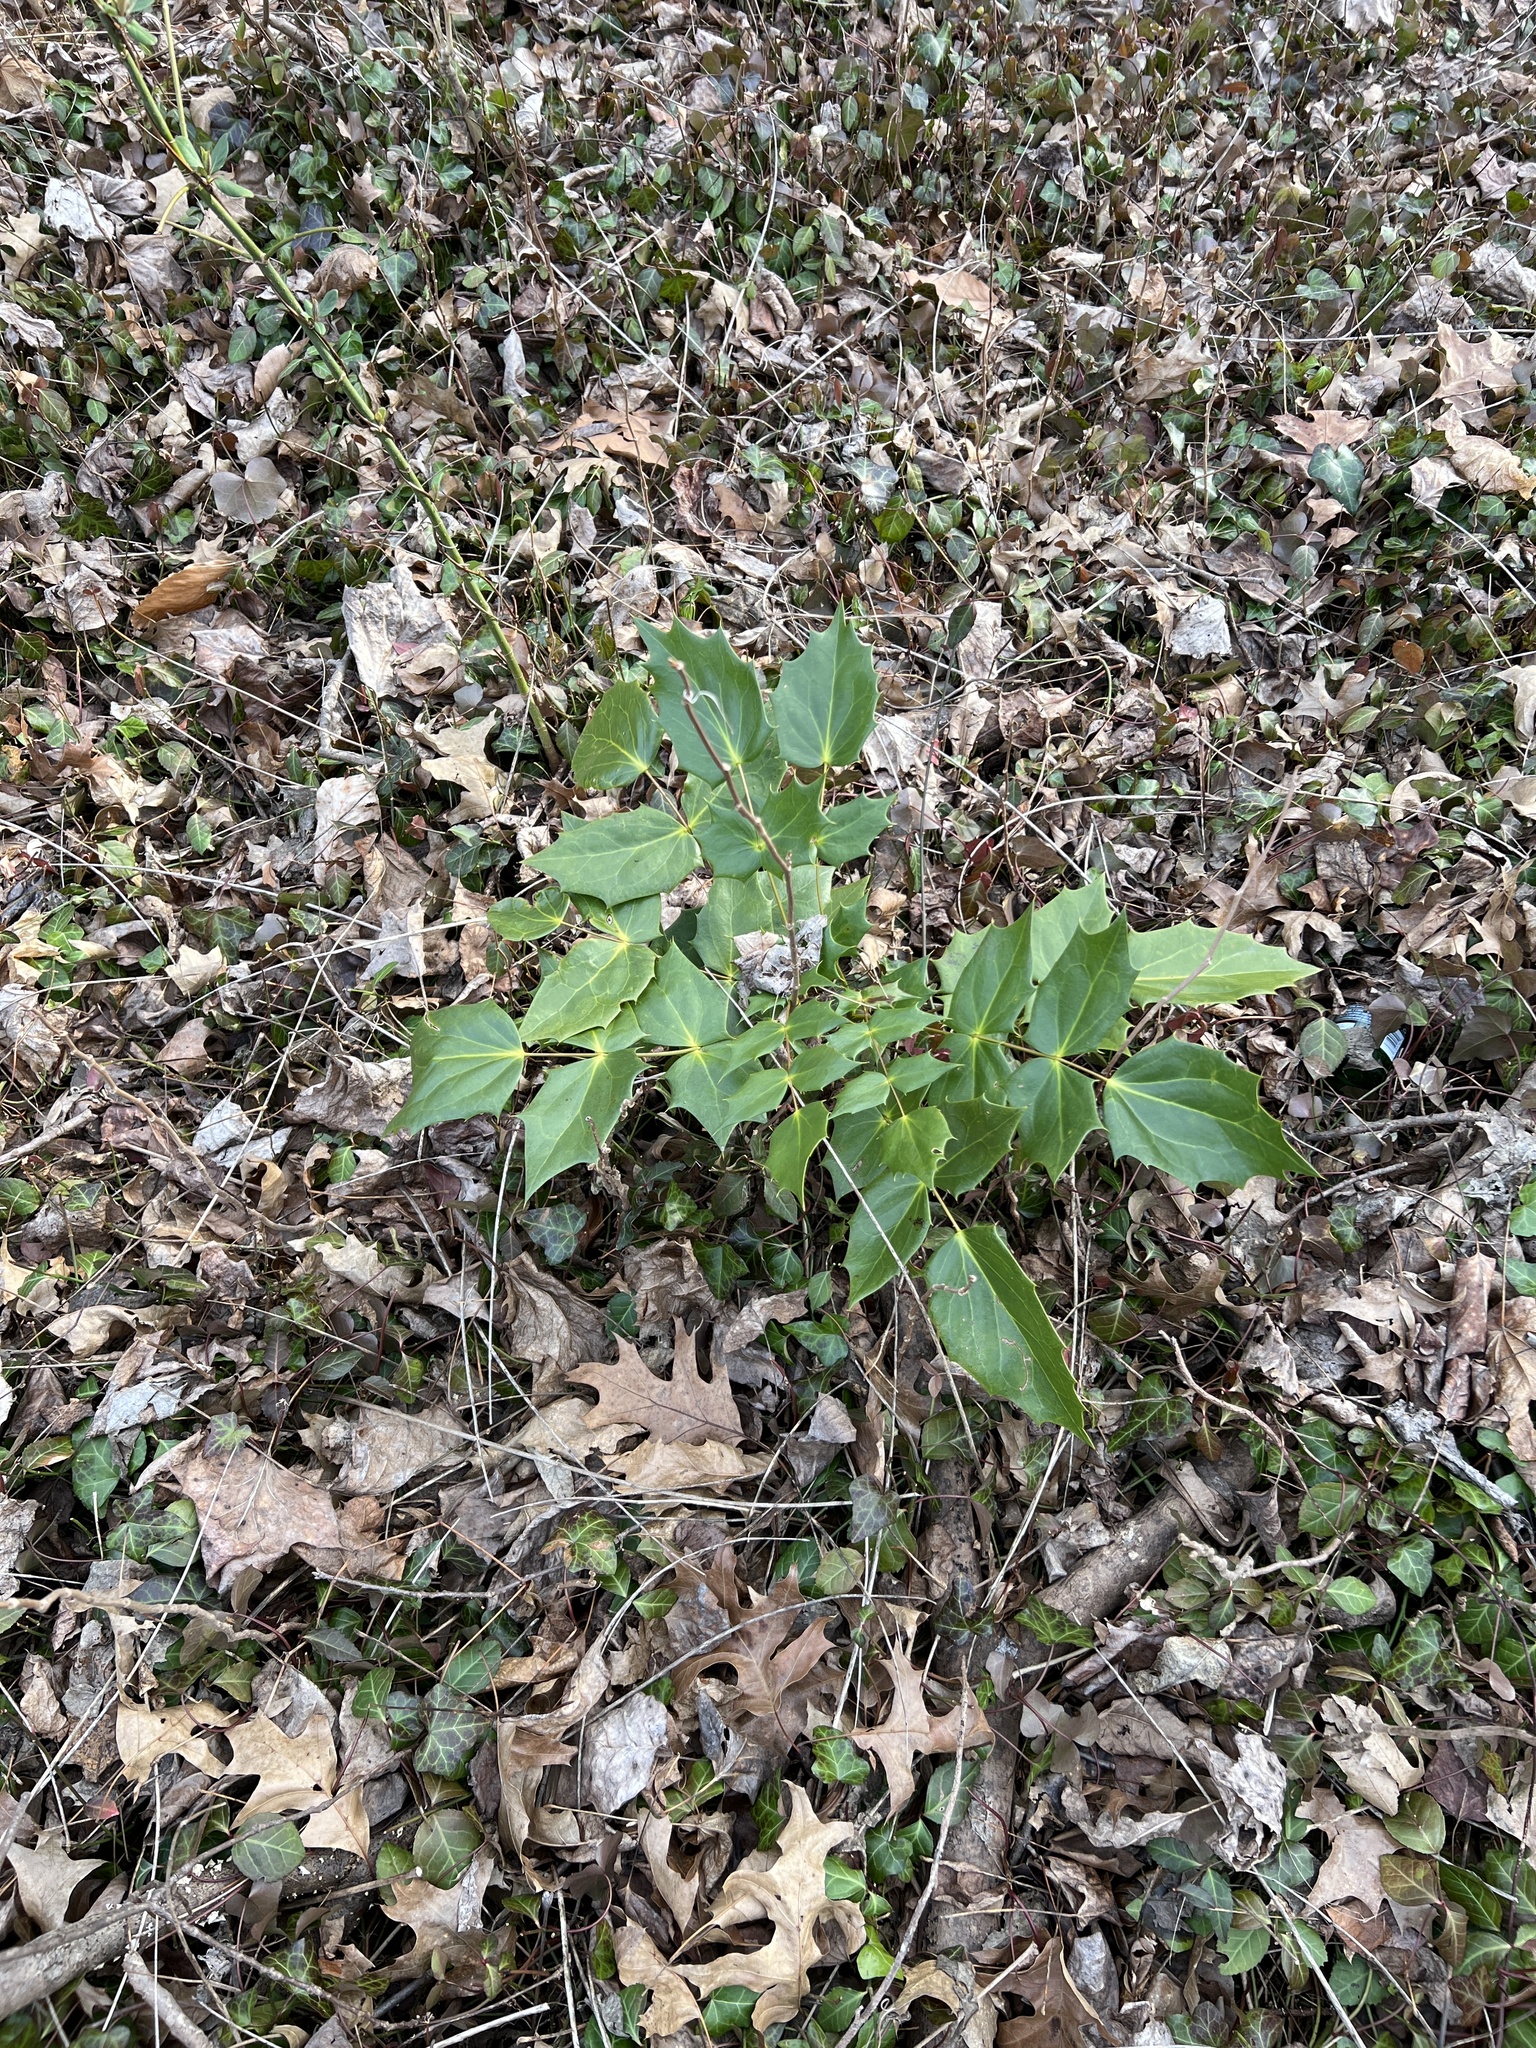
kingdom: Plantae
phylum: Tracheophyta
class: Magnoliopsida
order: Ranunculales
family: Berberidaceae
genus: Mahonia
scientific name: Mahonia bealei
